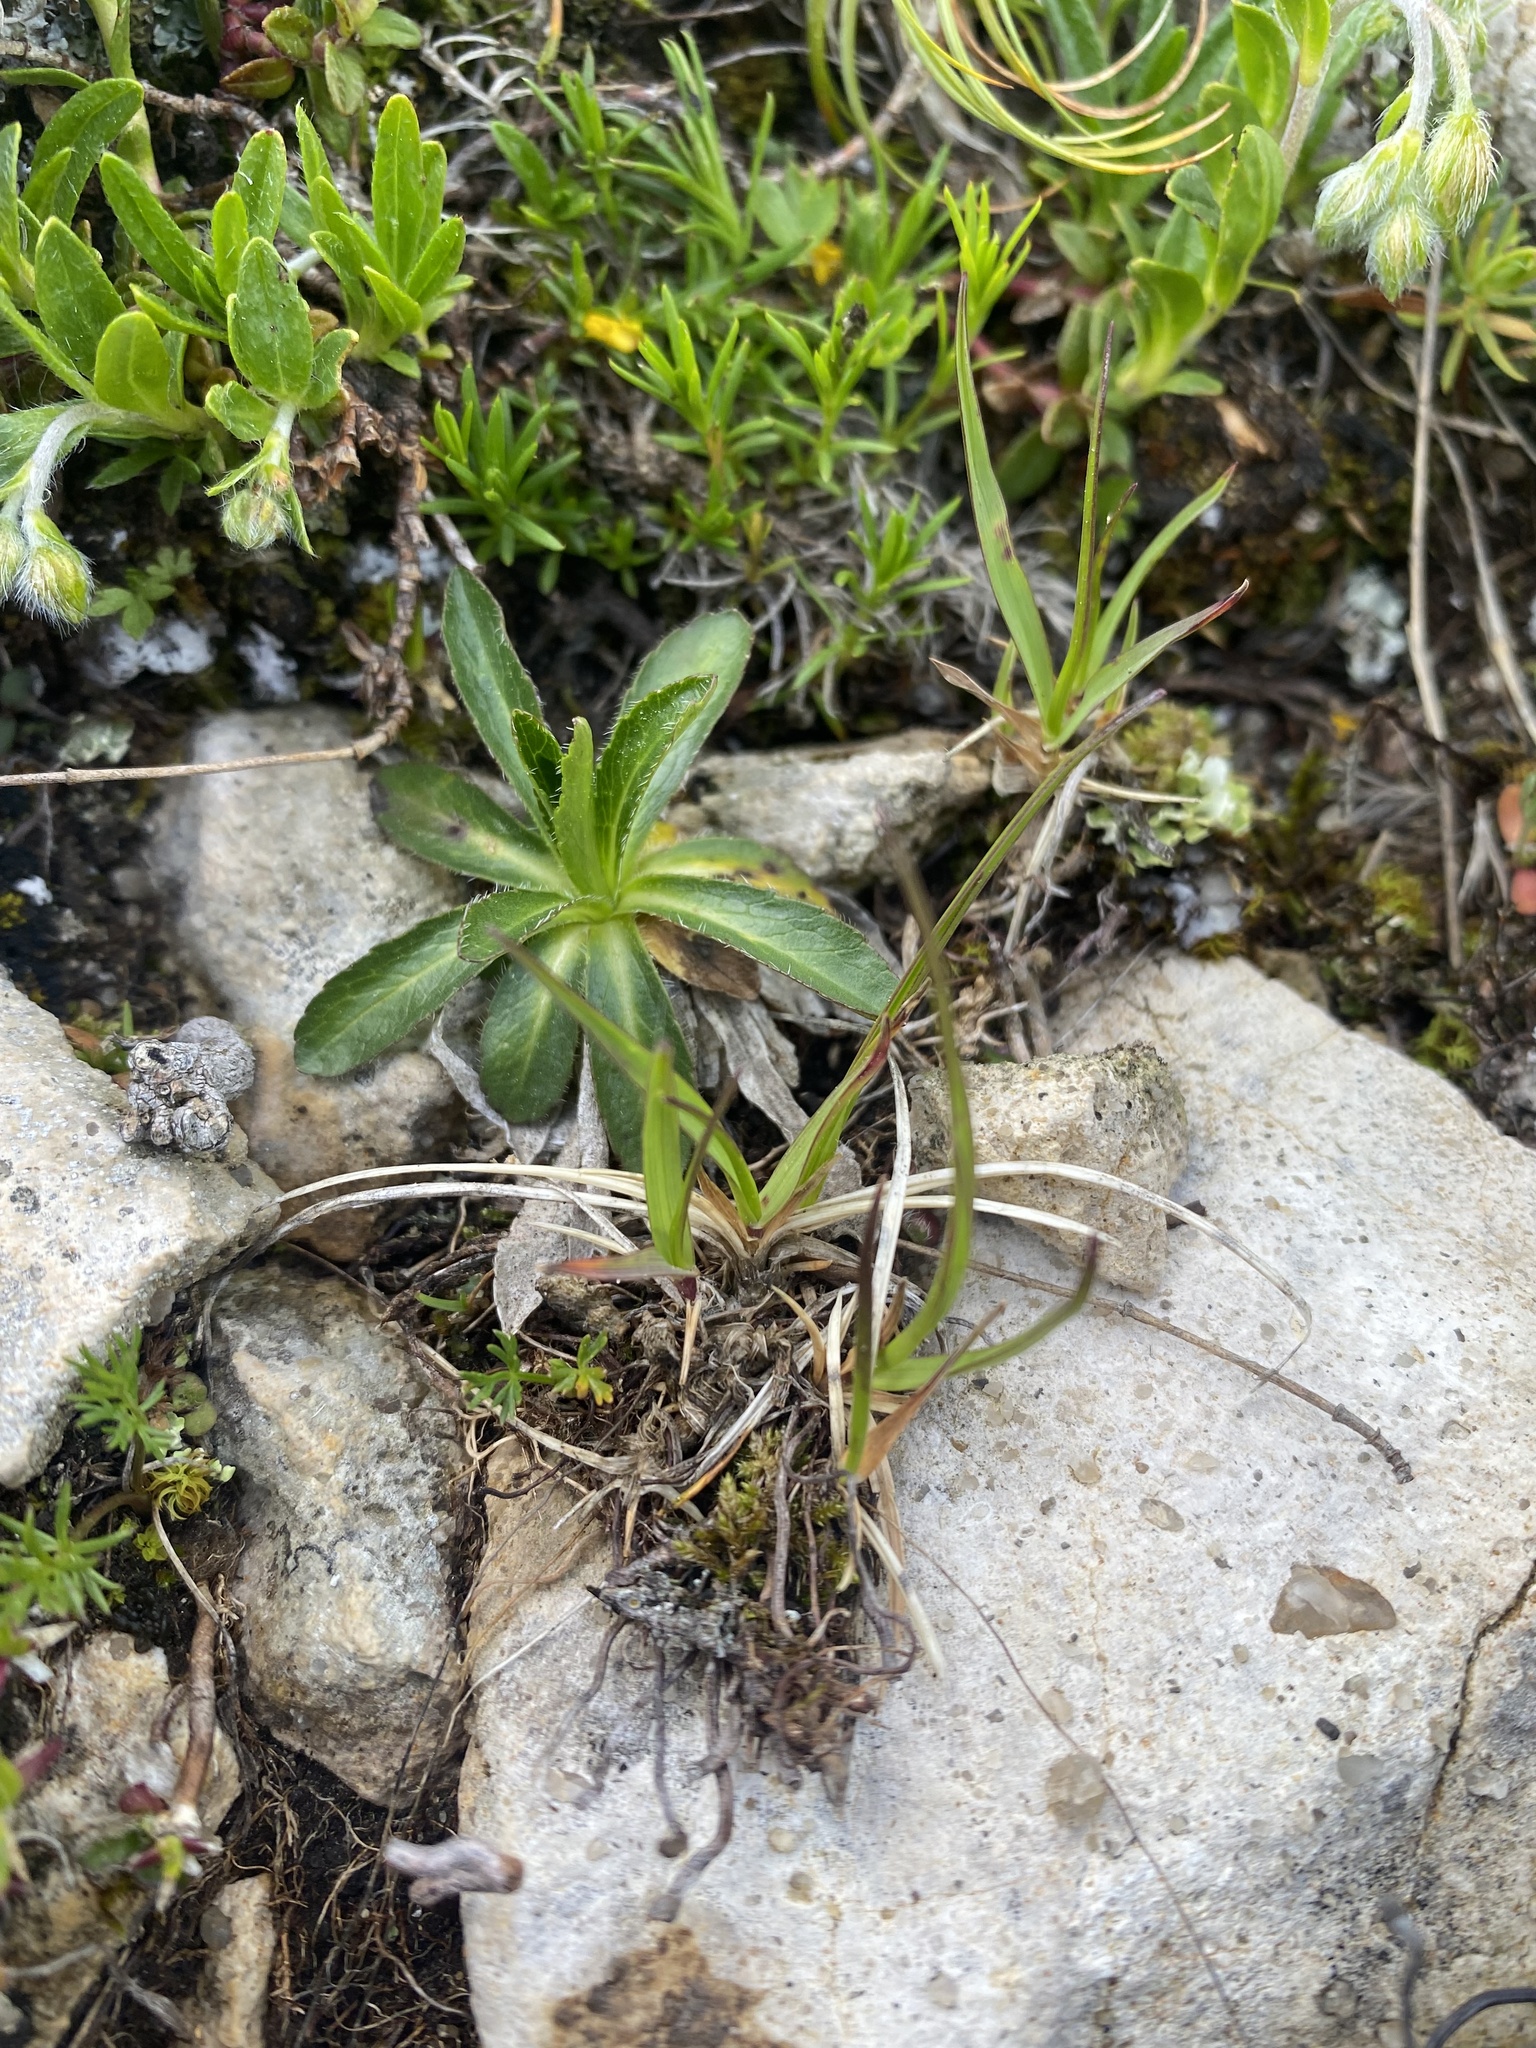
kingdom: Plantae
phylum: Tracheophyta
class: Magnoliopsida
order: Asterales
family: Campanulaceae
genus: Campanula
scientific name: Campanula tridentata
